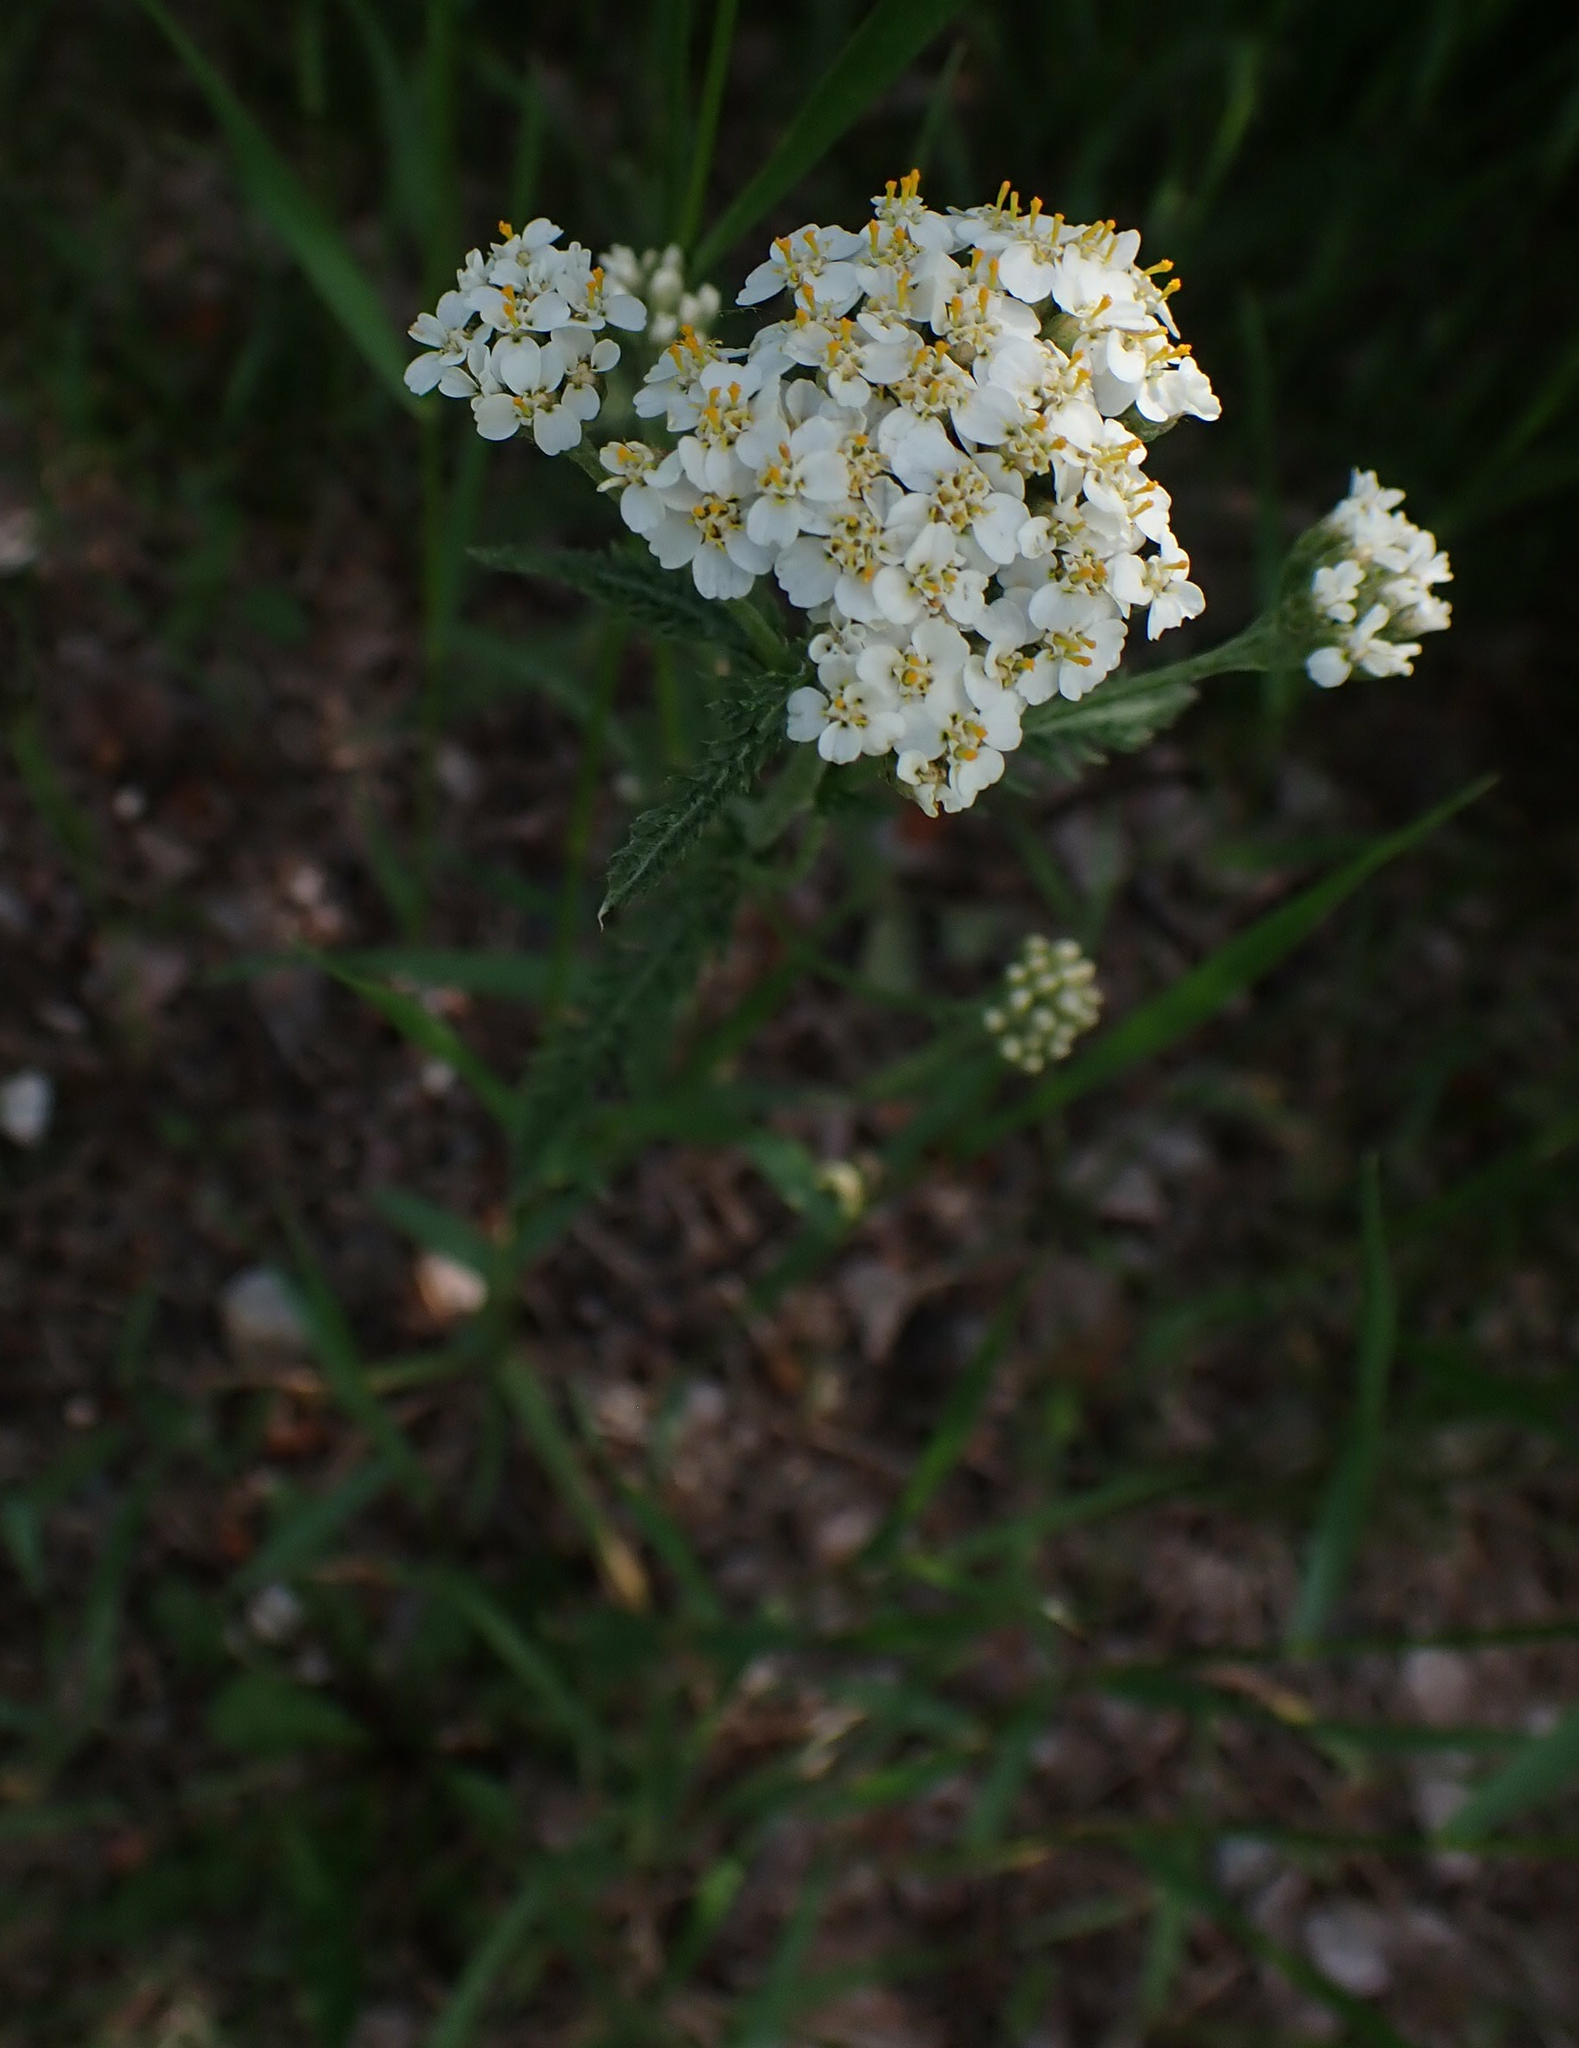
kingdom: Plantae
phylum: Tracheophyta
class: Magnoliopsida
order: Asterales
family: Asteraceae
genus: Achillea
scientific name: Achillea millefolium
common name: Yarrow
